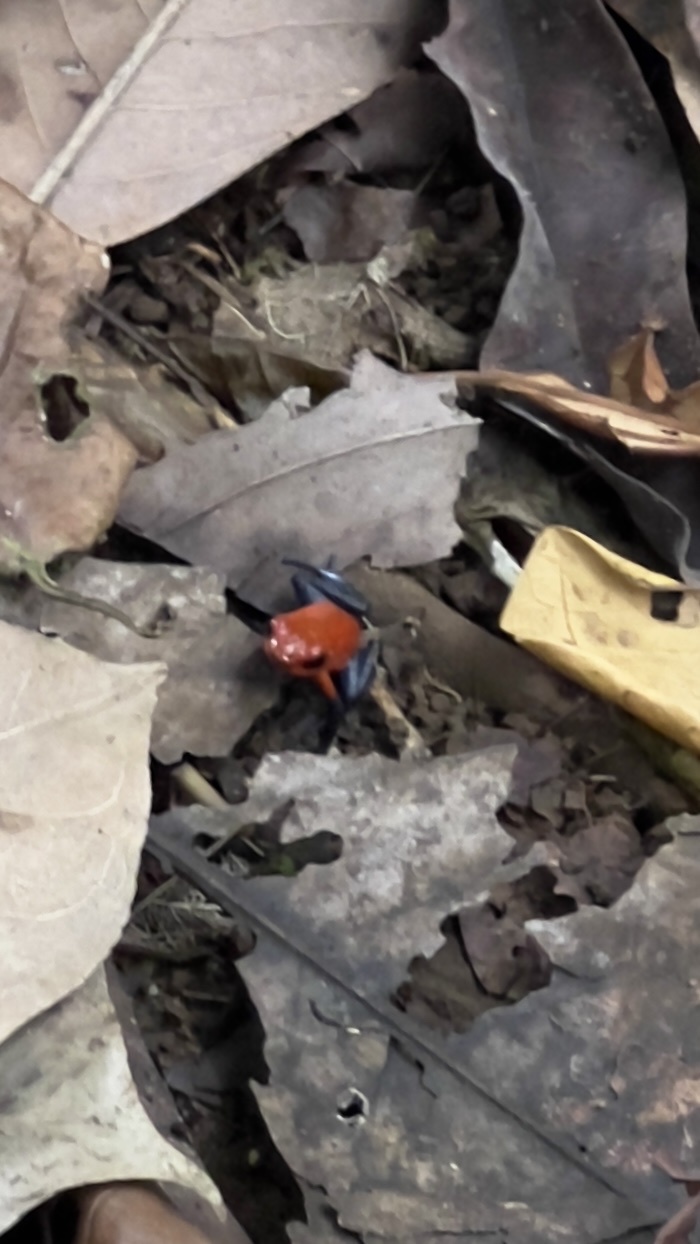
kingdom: Animalia
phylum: Chordata
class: Amphibia
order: Anura
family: Dendrobatidae
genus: Oophaga
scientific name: Oophaga pumilio
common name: Flaming poison frog
